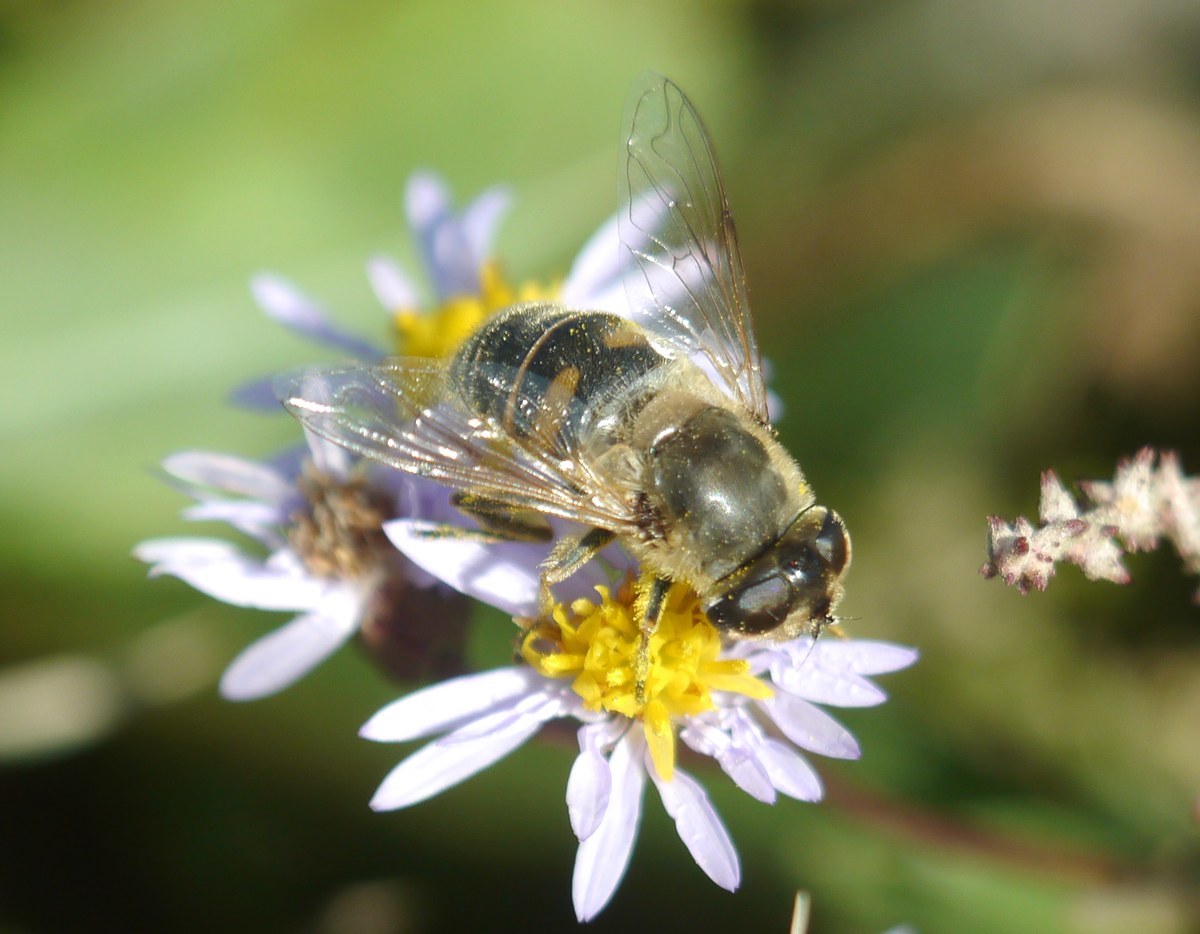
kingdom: Animalia
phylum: Arthropoda
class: Insecta
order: Diptera
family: Syrphidae
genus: Eristalis
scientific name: Eristalis tenax
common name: Drone fly
